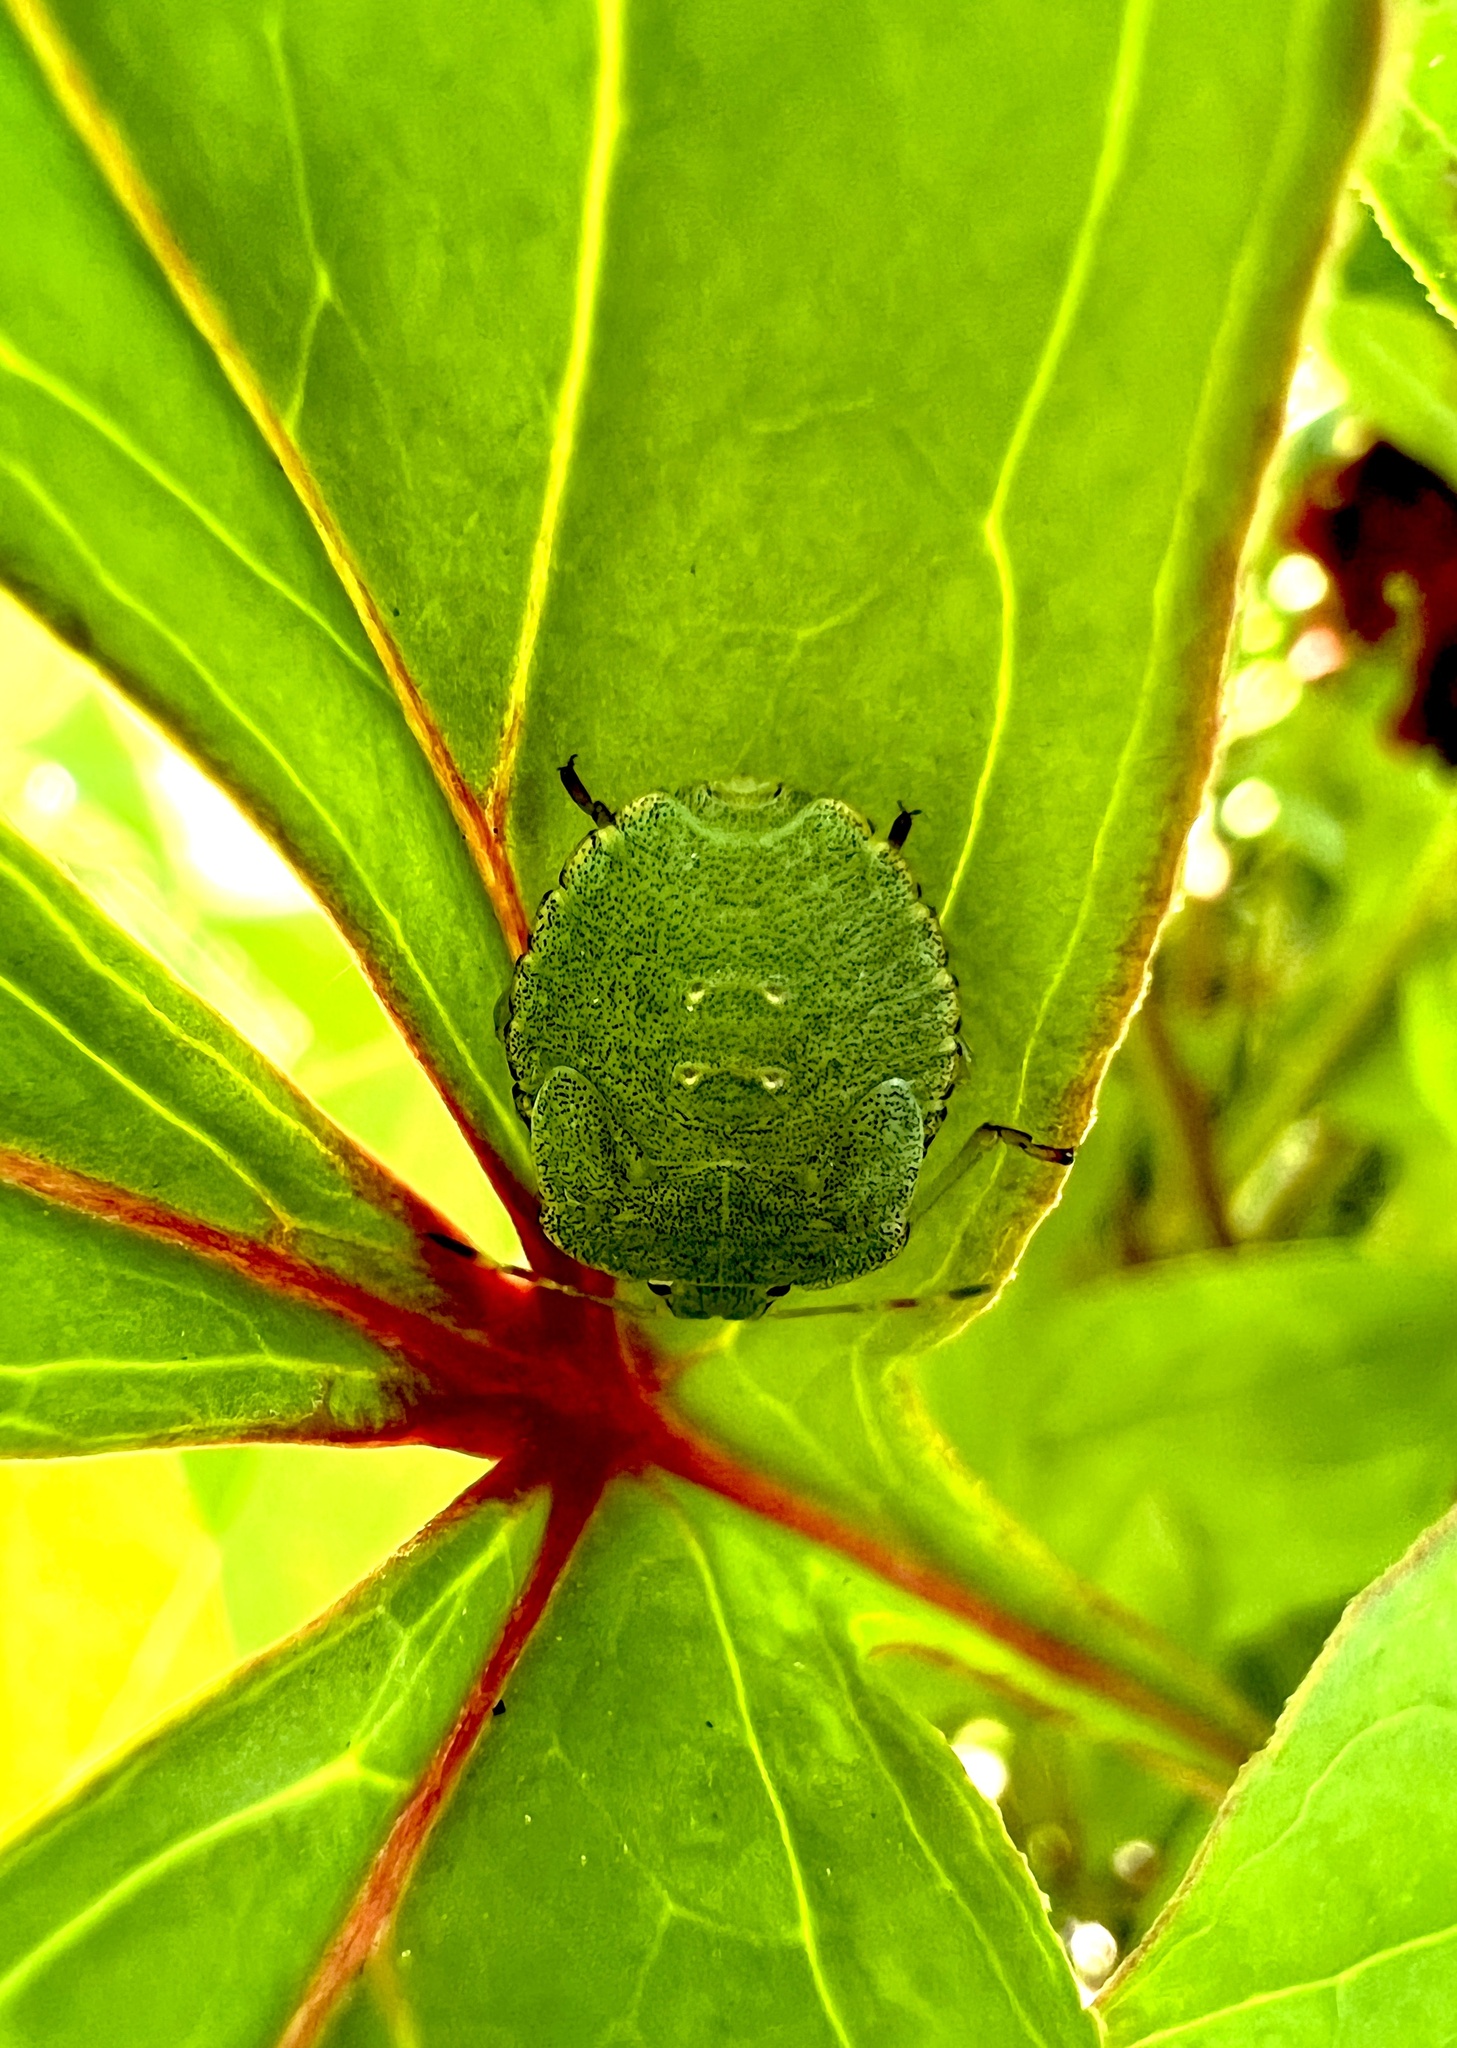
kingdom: Animalia
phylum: Arthropoda
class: Insecta
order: Hemiptera
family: Pentatomidae
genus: Palomena
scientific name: Palomena prasina
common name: Green shieldbug
